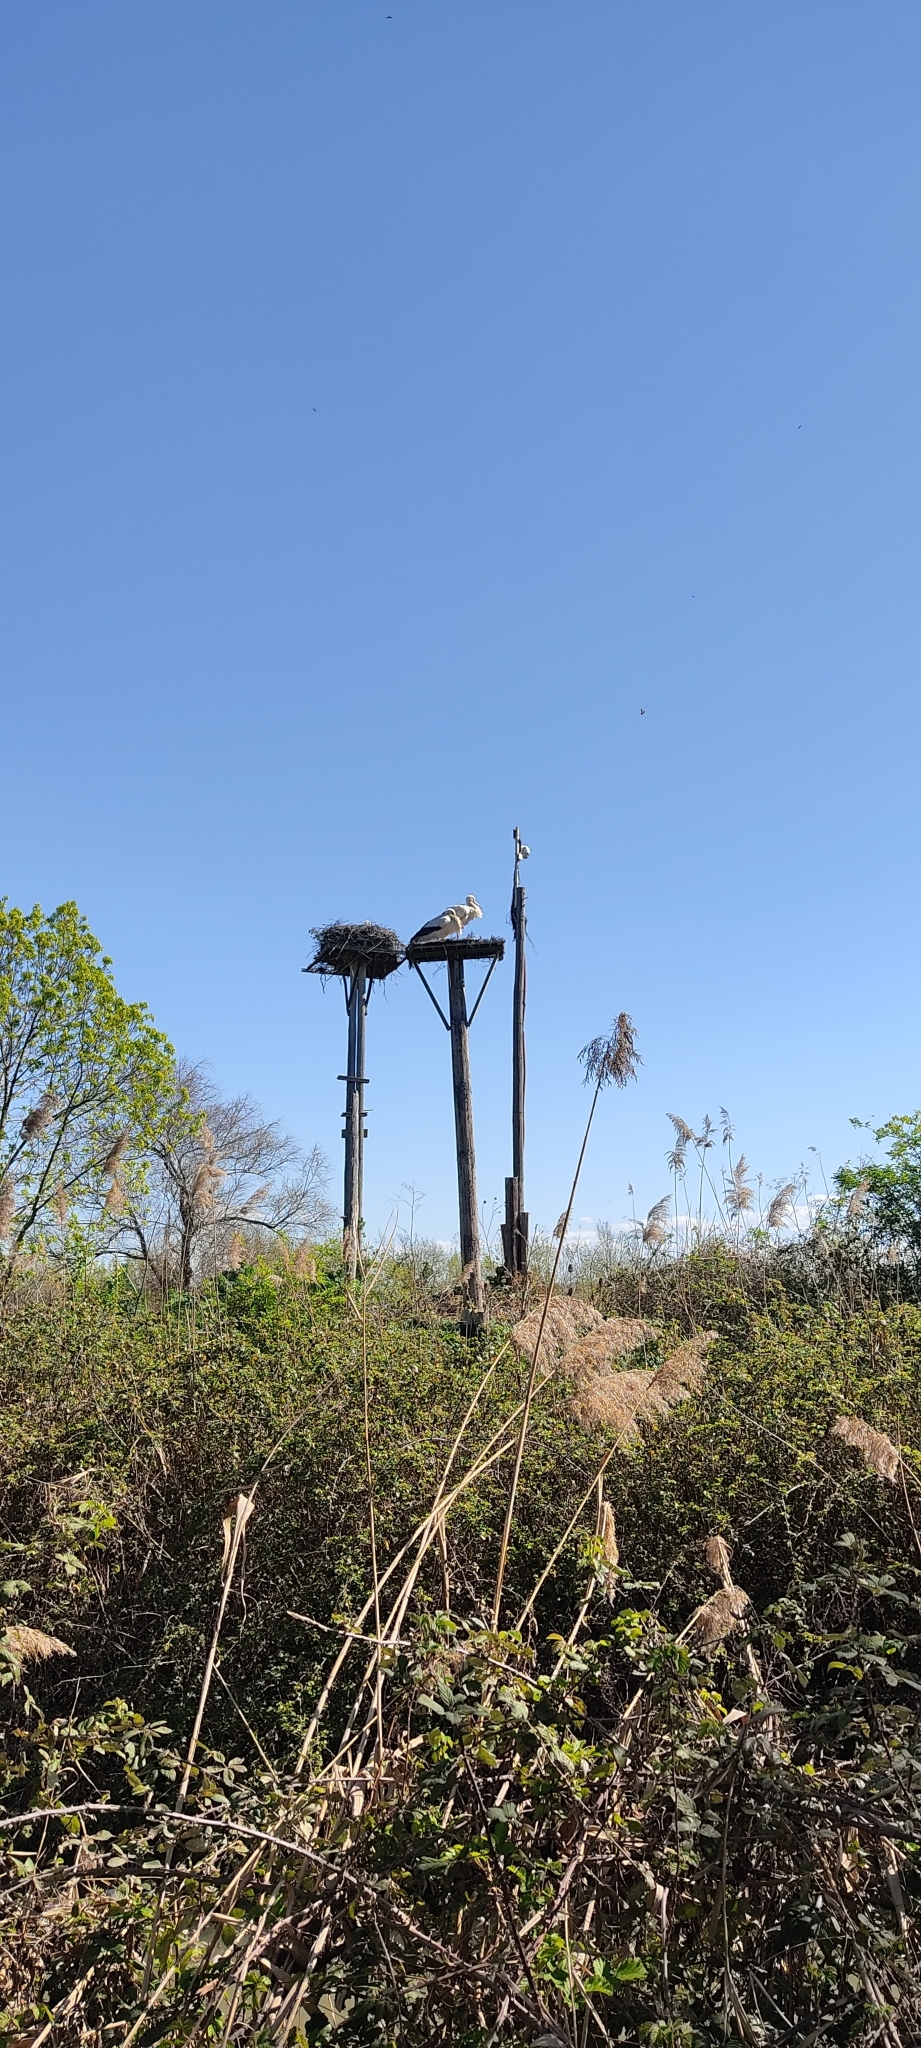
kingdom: Animalia
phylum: Chordata
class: Aves
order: Ciconiiformes
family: Ciconiidae
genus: Ciconia
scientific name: Ciconia ciconia
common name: White stork
